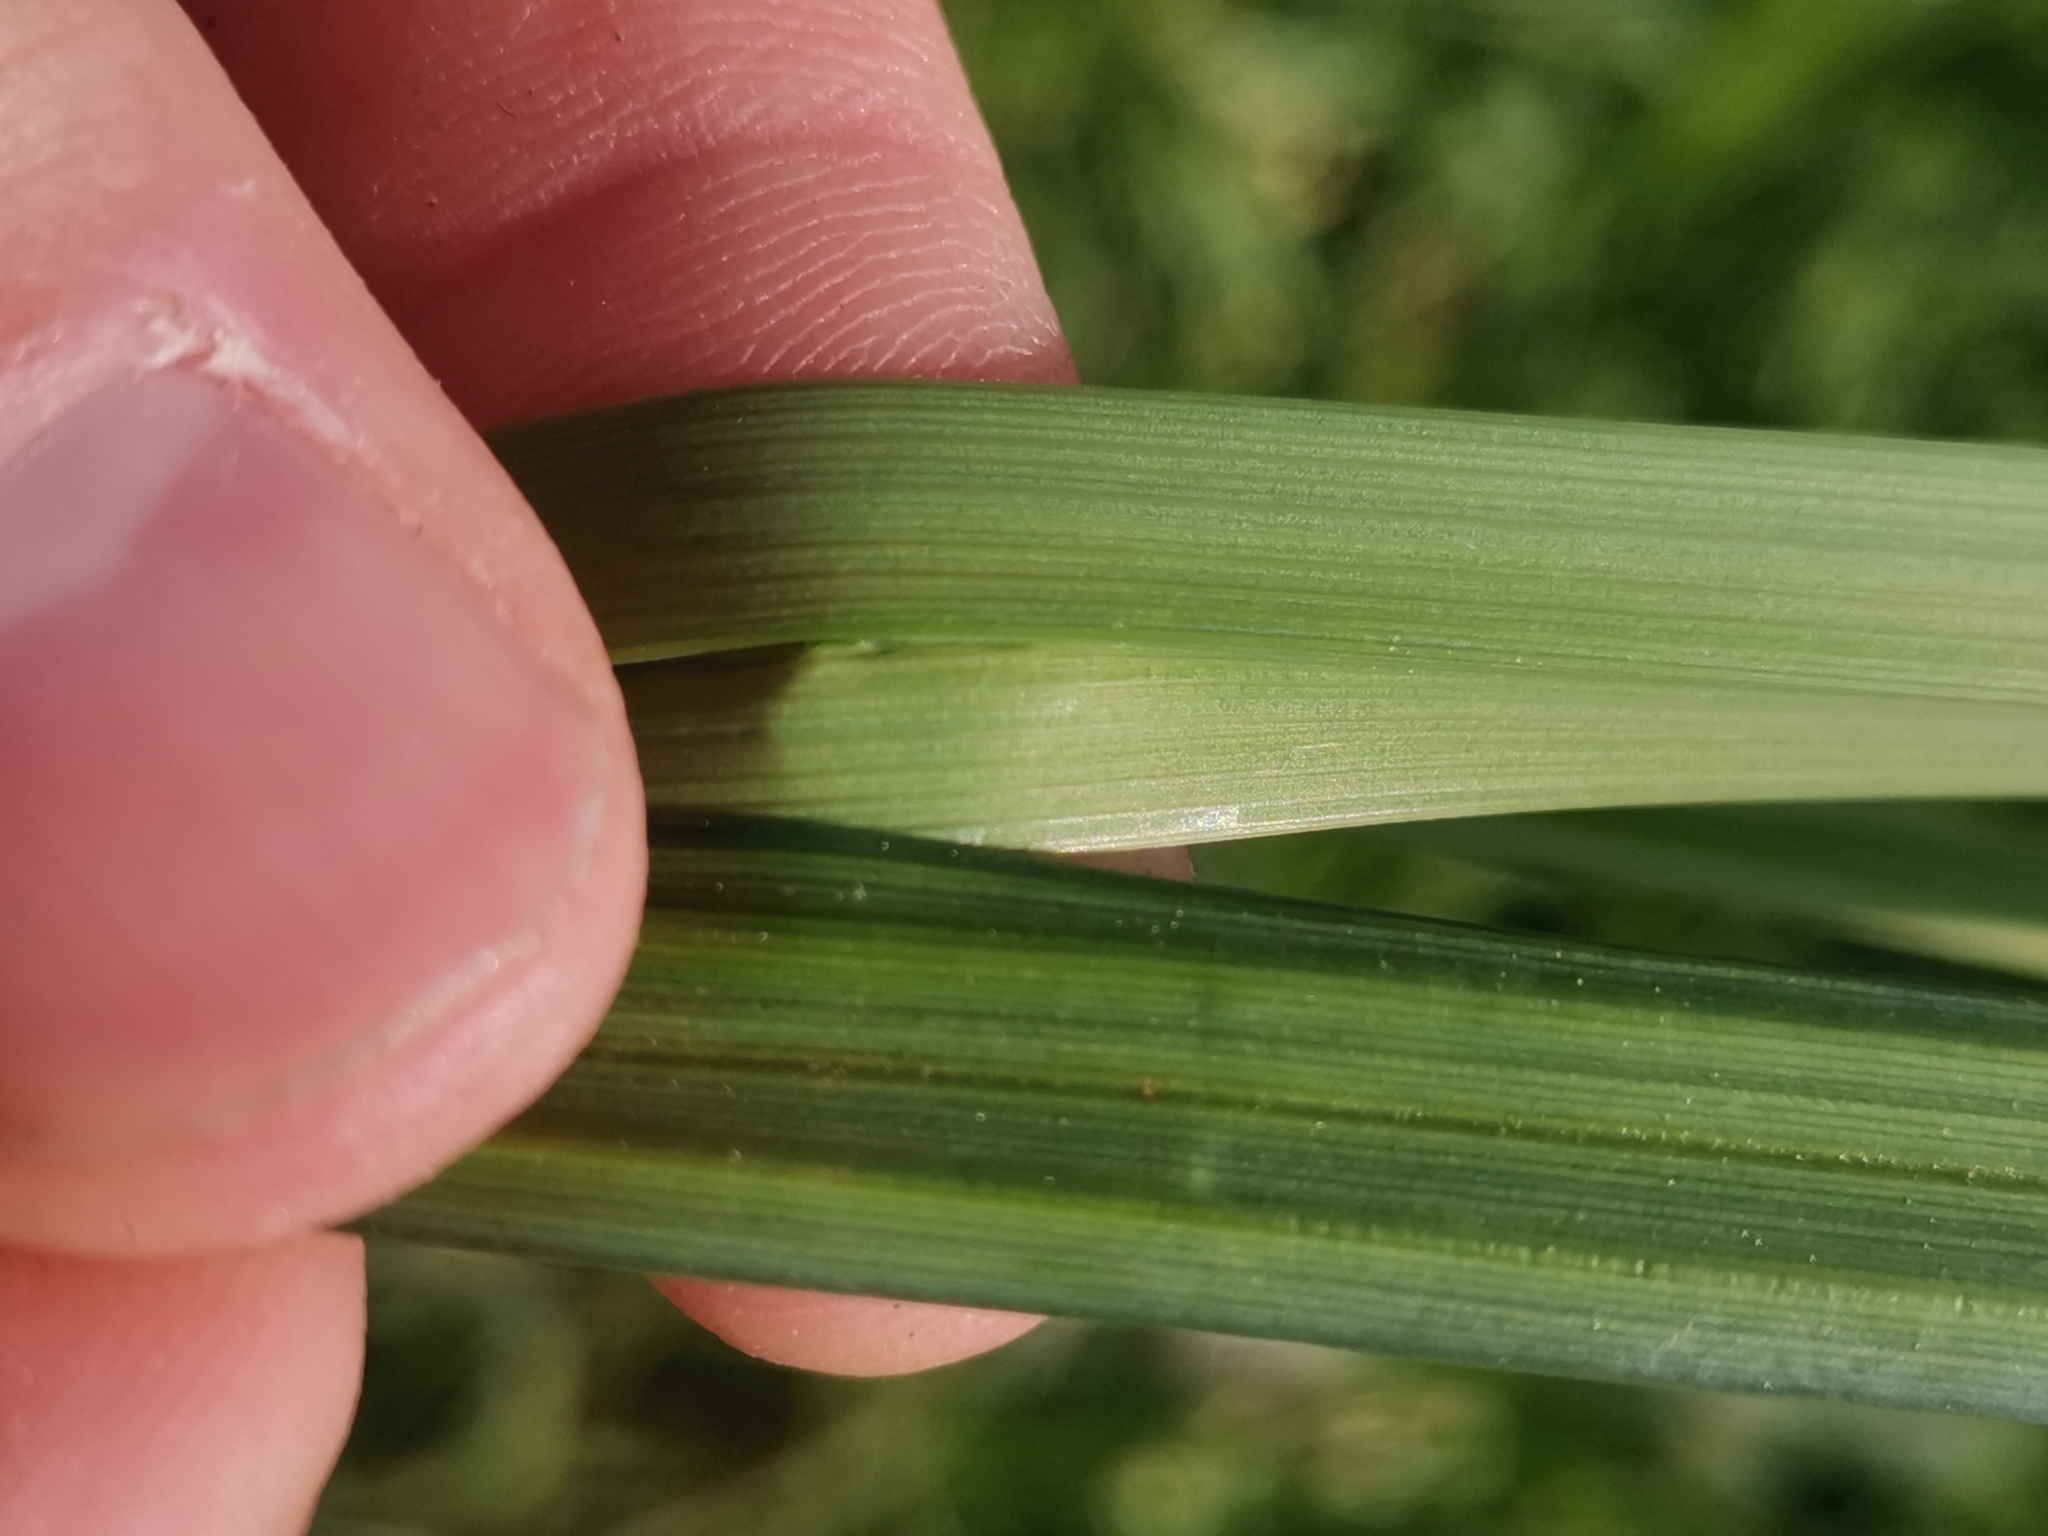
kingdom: Plantae
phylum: Tracheophyta
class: Liliopsida
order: Poales
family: Cyperaceae
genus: Carex
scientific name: Carex acutiformis
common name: Lesser pond-sedge
